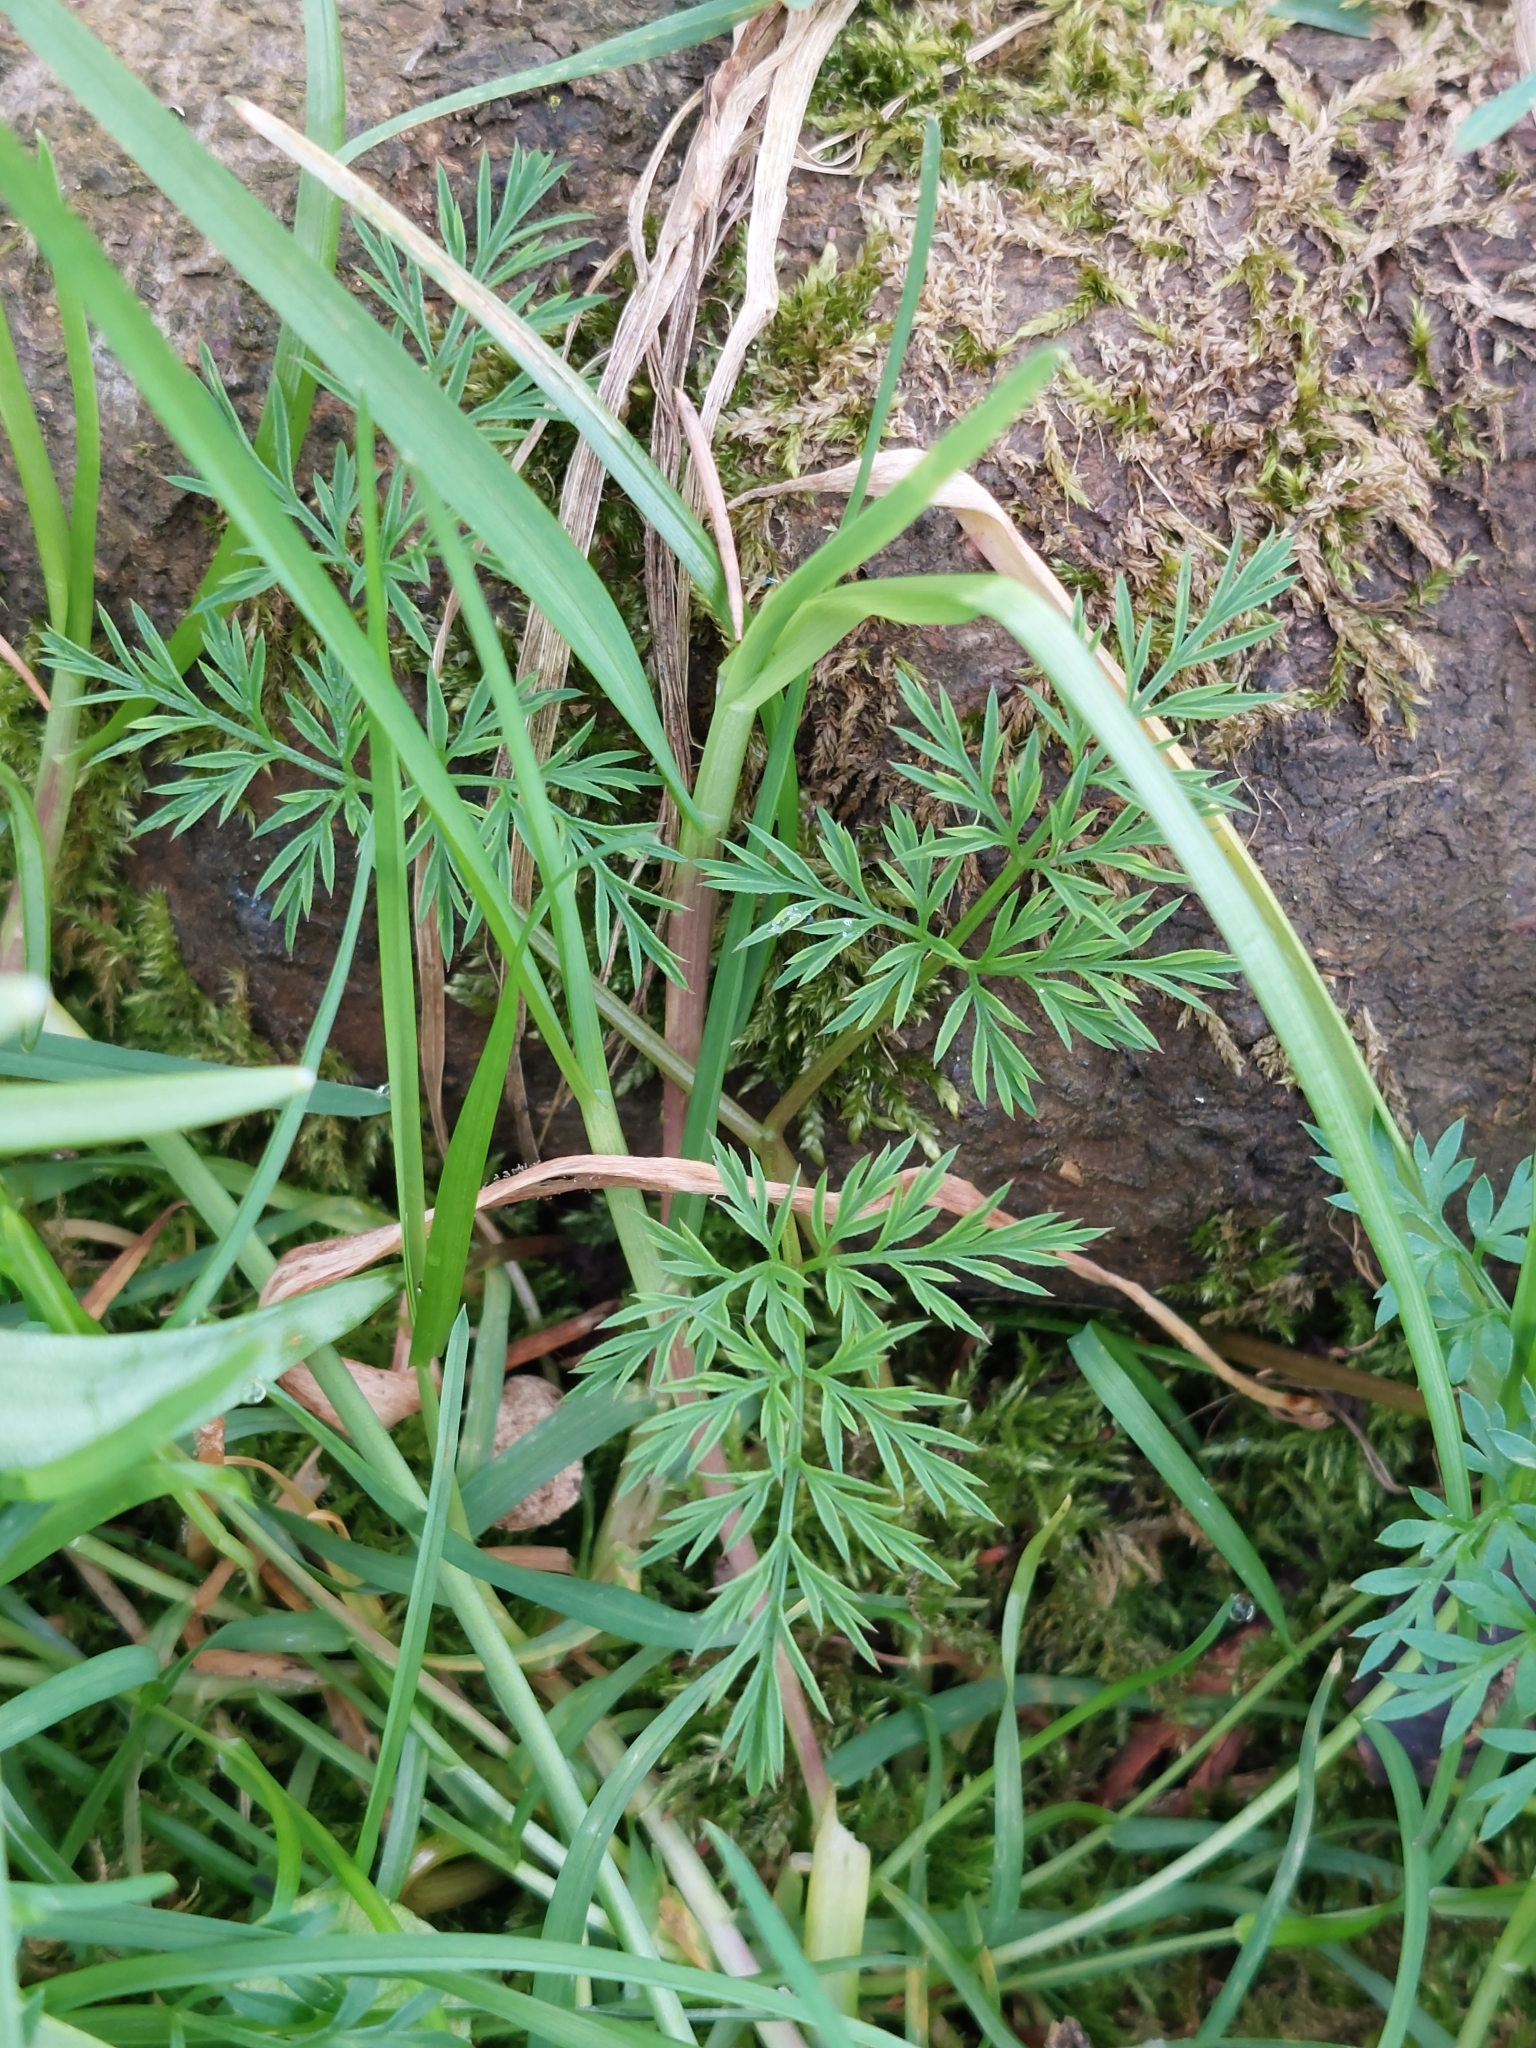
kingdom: Plantae
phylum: Tracheophyta
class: Magnoliopsida
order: Apiales
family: Apiaceae
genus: Conopodium
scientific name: Conopodium majus
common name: Pignut
